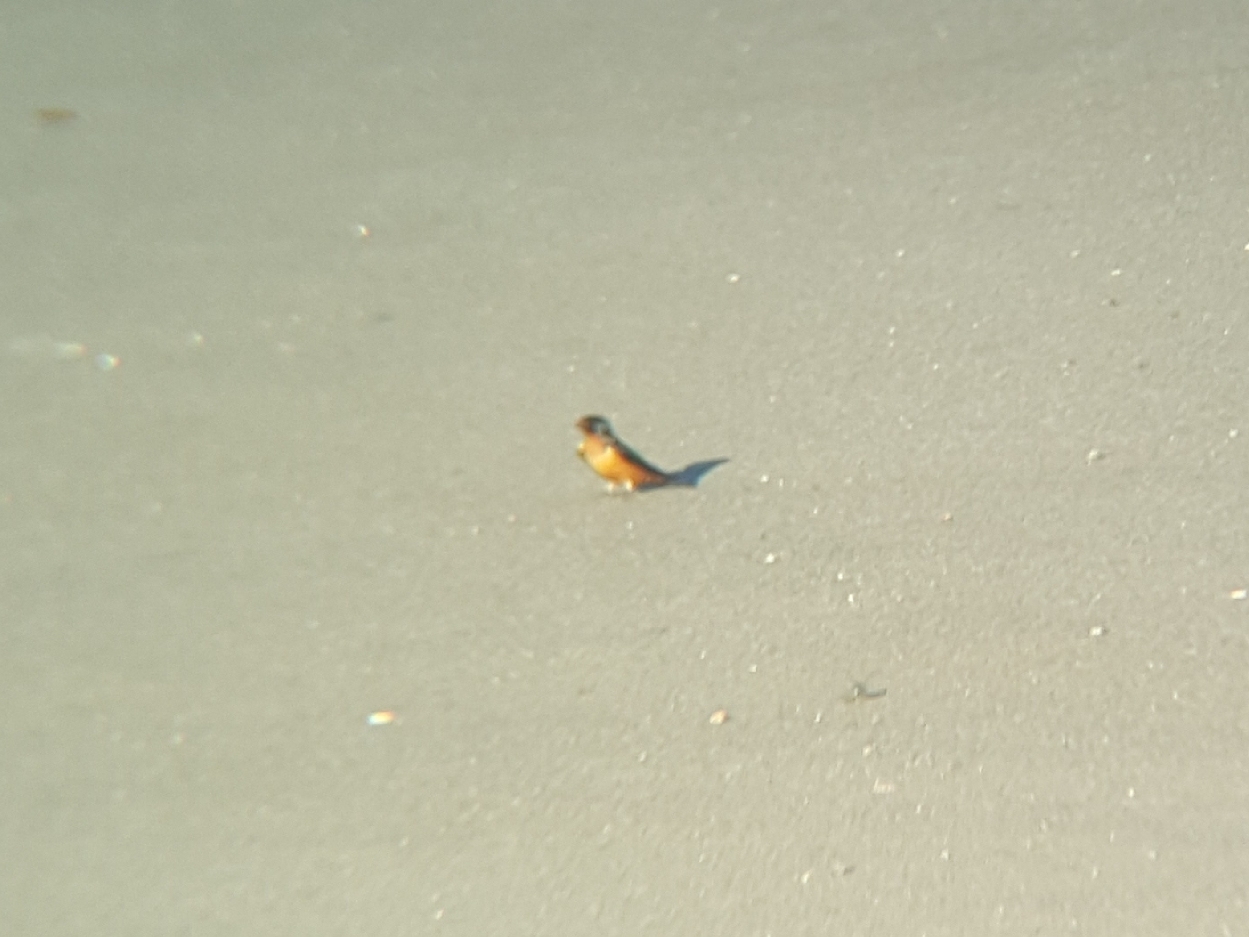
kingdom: Animalia
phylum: Chordata
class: Aves
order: Passeriformes
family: Hirundinidae
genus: Hirundo
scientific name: Hirundo rustica
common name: Barn swallow
